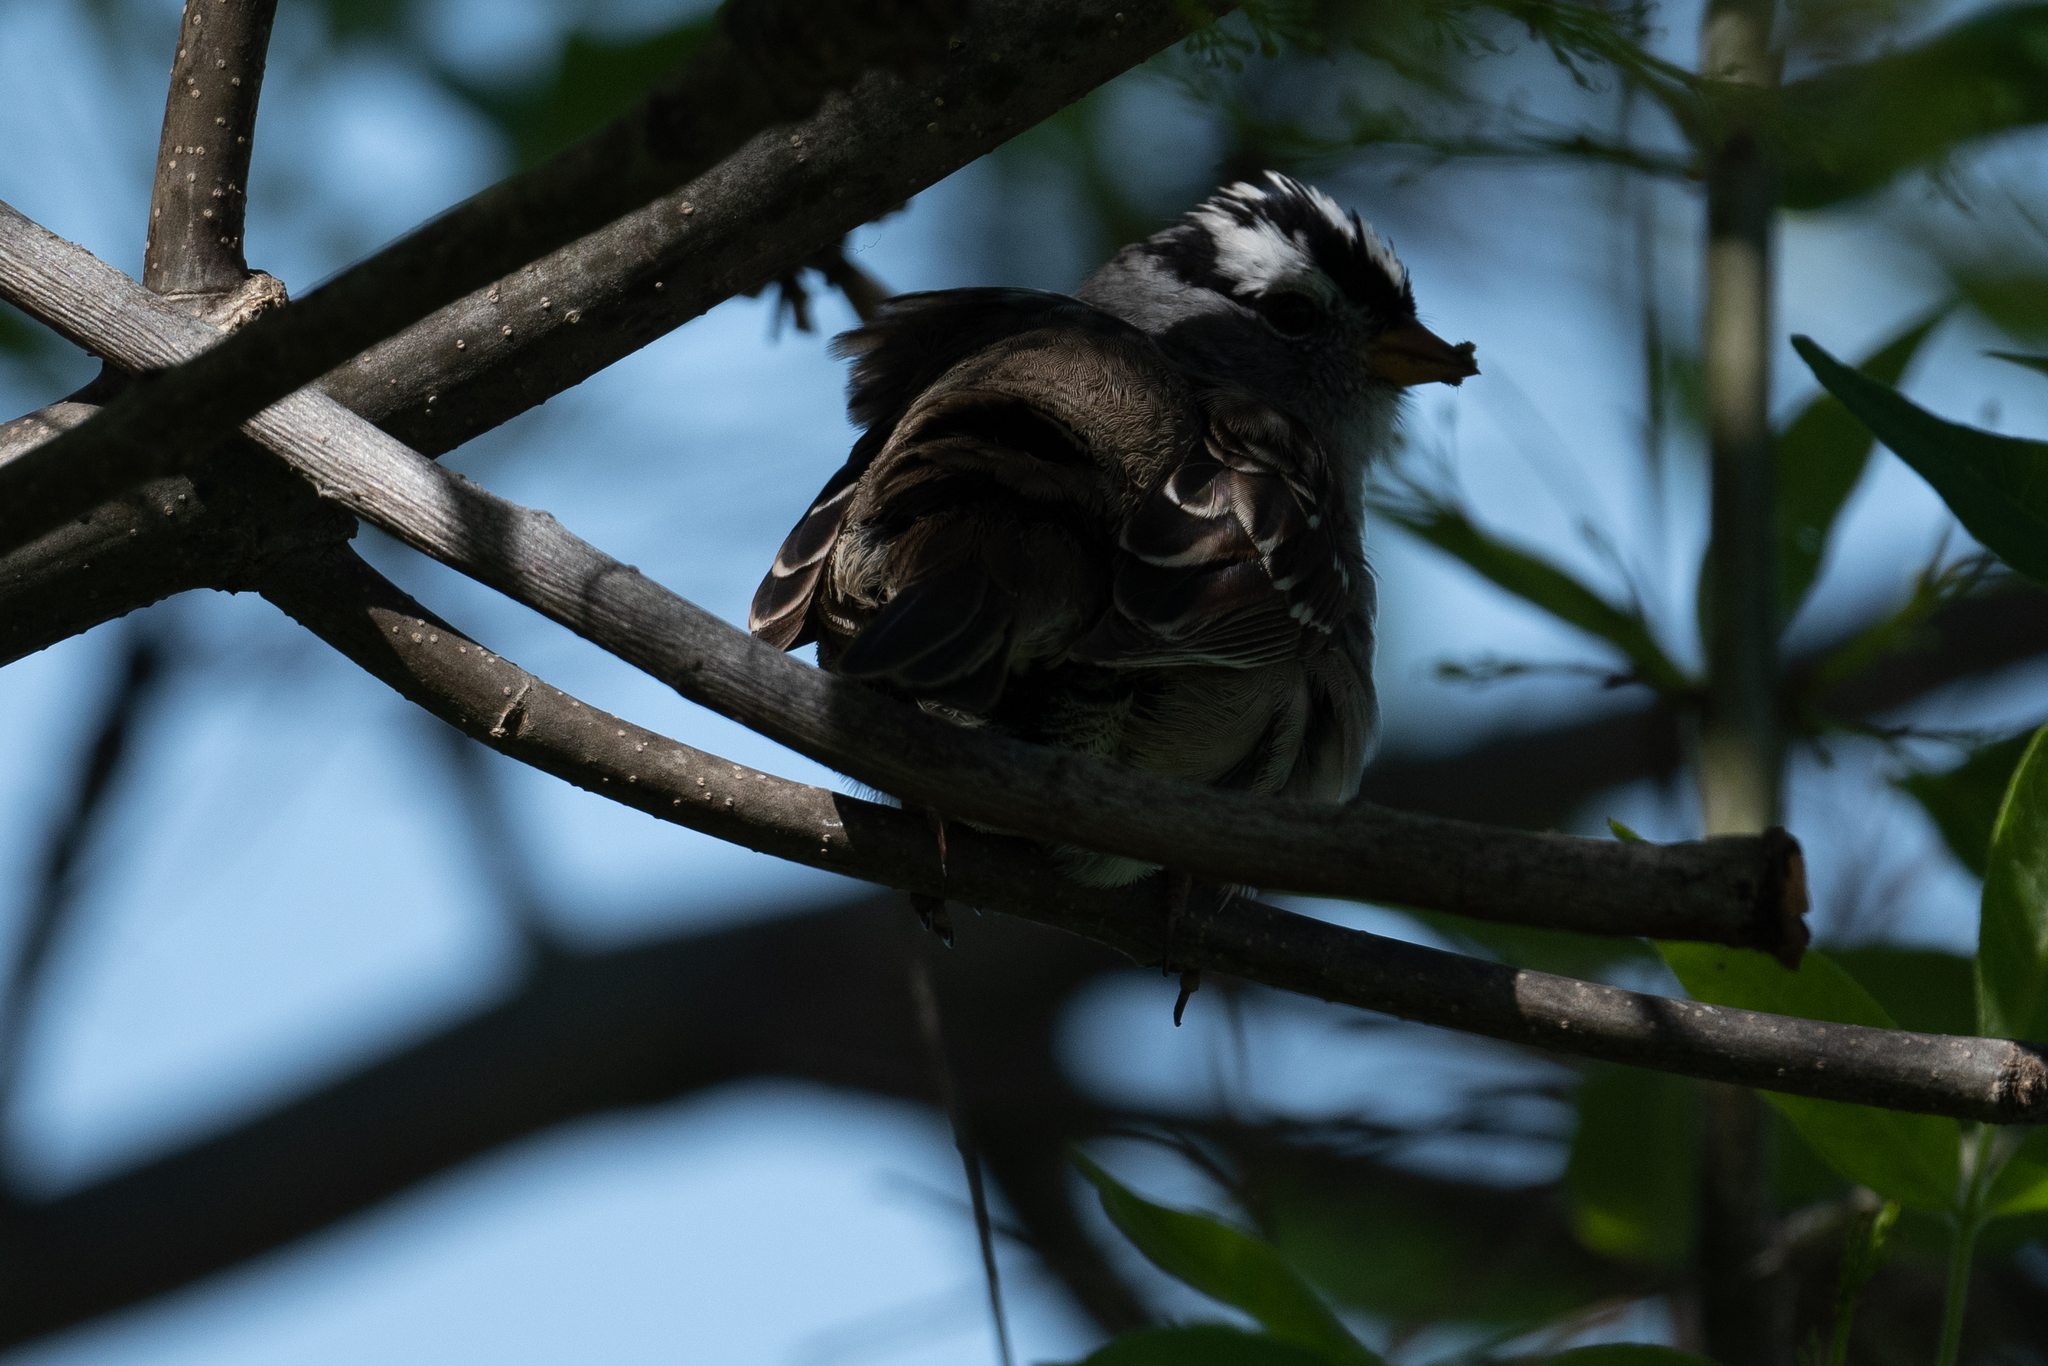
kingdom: Animalia
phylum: Chordata
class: Aves
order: Passeriformes
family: Passerellidae
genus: Zonotrichia
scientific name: Zonotrichia leucophrys
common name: White-crowned sparrow
